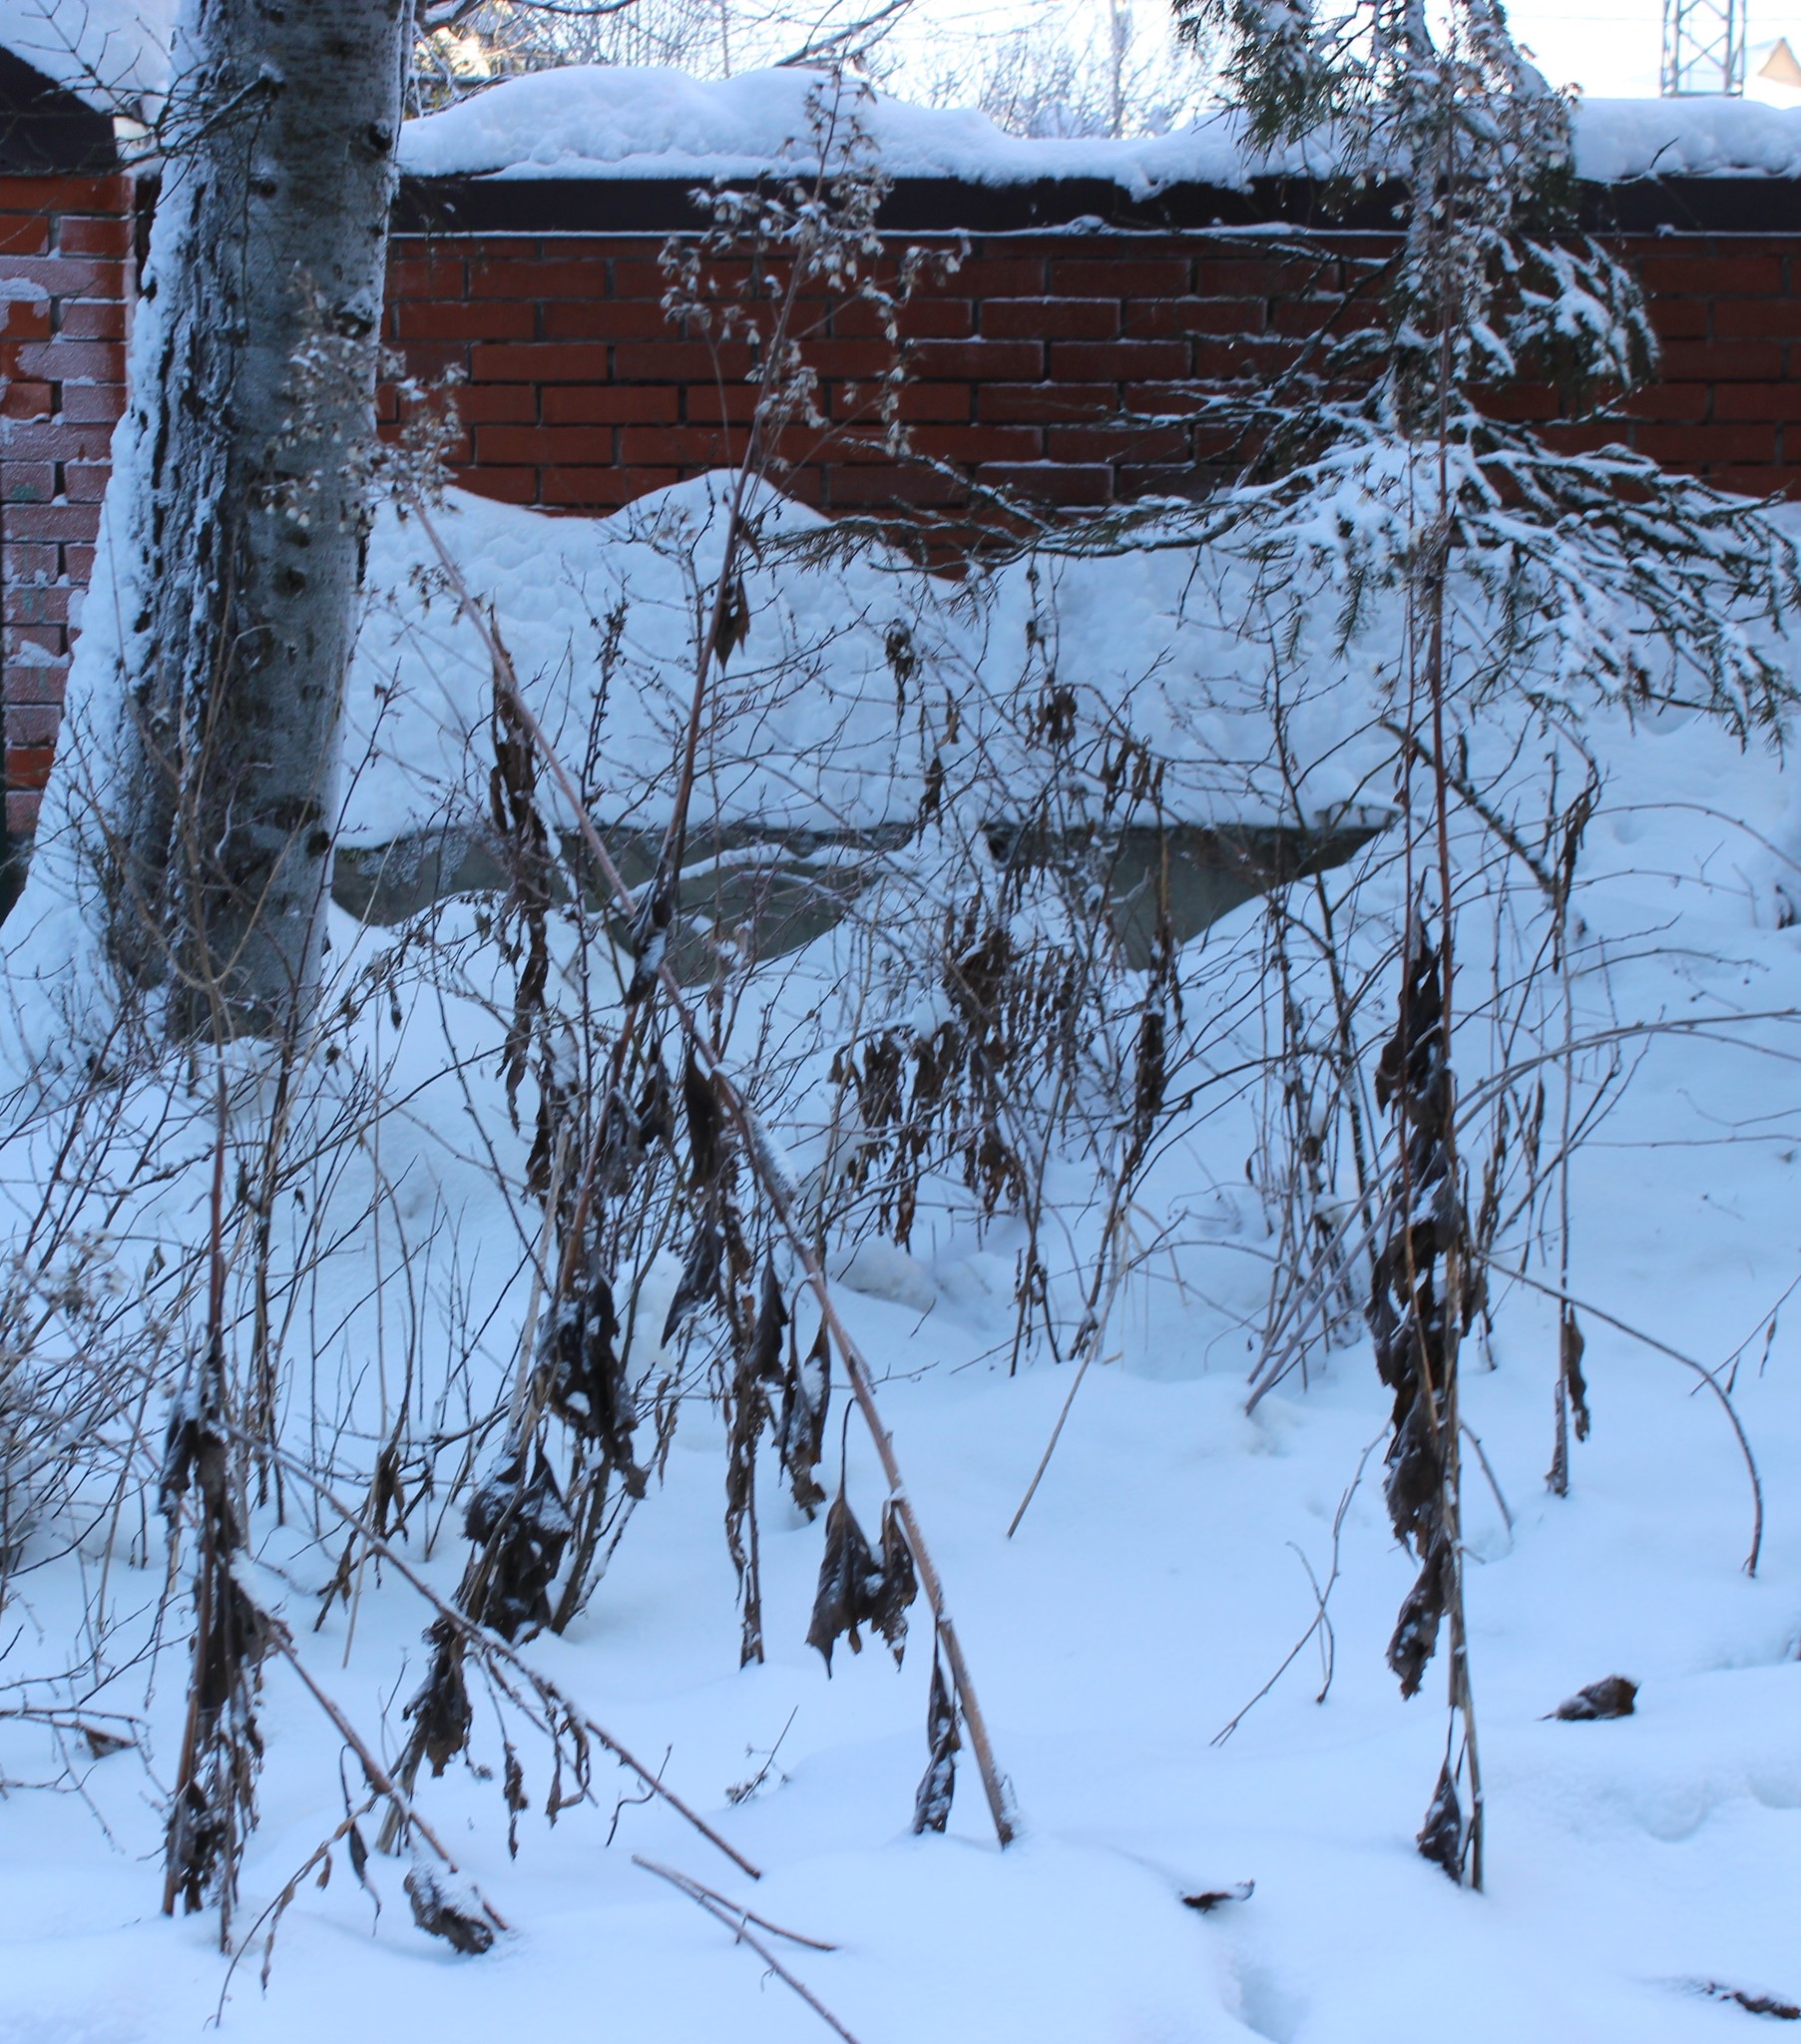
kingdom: Plantae
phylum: Tracheophyta
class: Magnoliopsida
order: Asterales
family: Asteraceae
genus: Parasenecio
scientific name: Parasenecio hastatus
